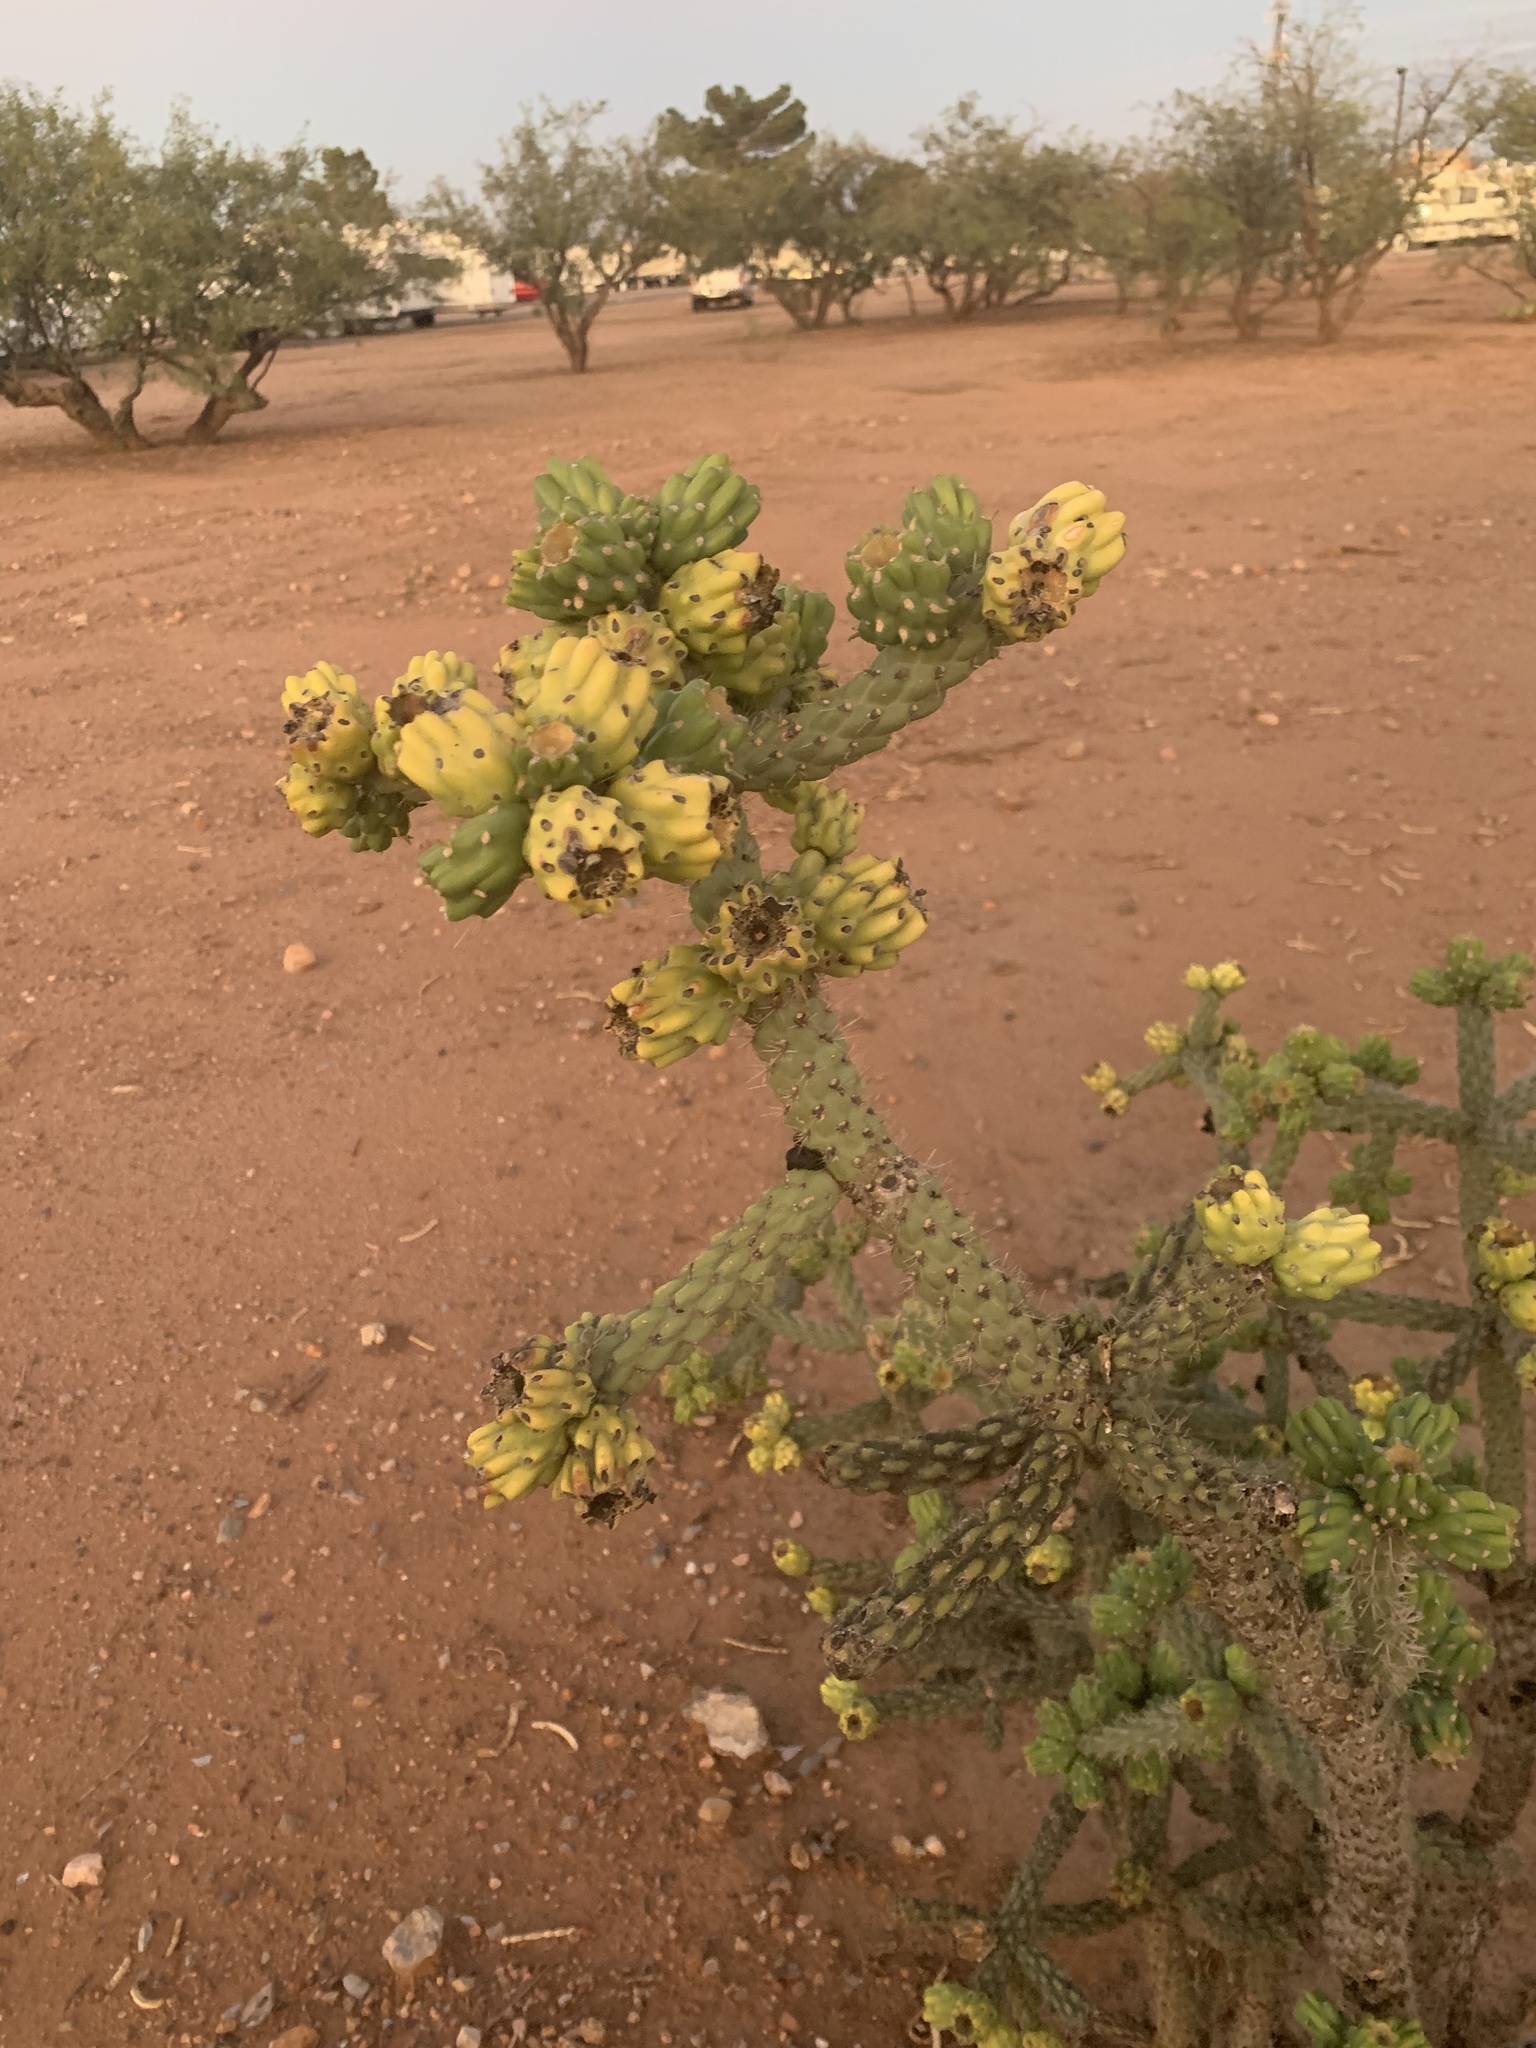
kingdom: Plantae
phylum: Tracheophyta
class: Magnoliopsida
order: Caryophyllales
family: Cactaceae
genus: Cylindropuntia
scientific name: Cylindropuntia imbricata
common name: Candelabrum cactus
